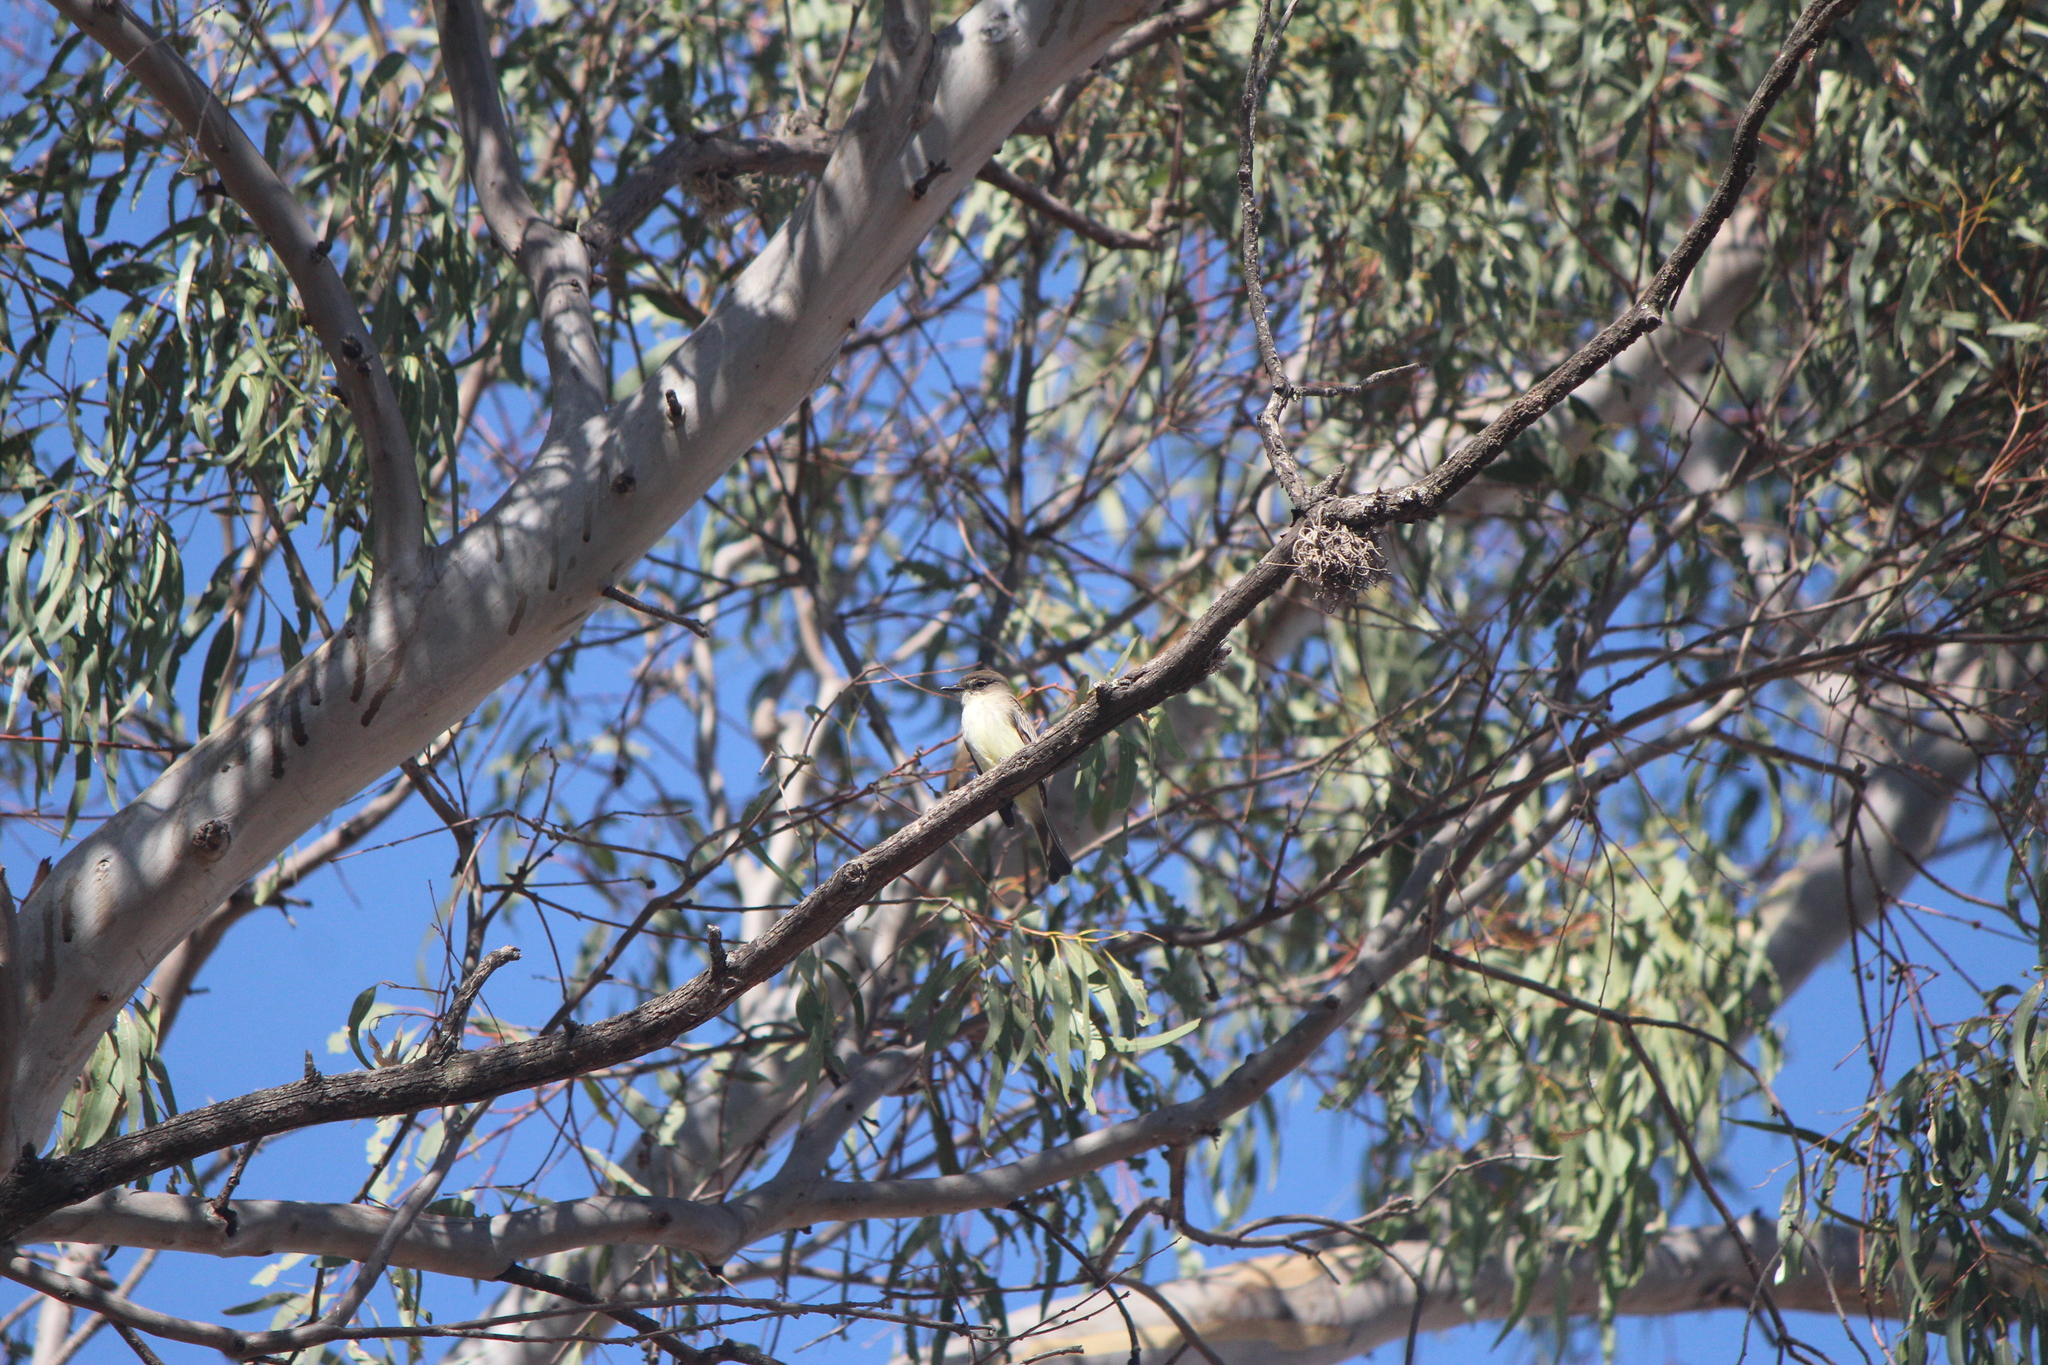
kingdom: Animalia
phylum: Chordata
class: Aves
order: Passeriformes
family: Tyrannidae
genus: Sayornis
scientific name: Sayornis phoebe
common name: Eastern phoebe
